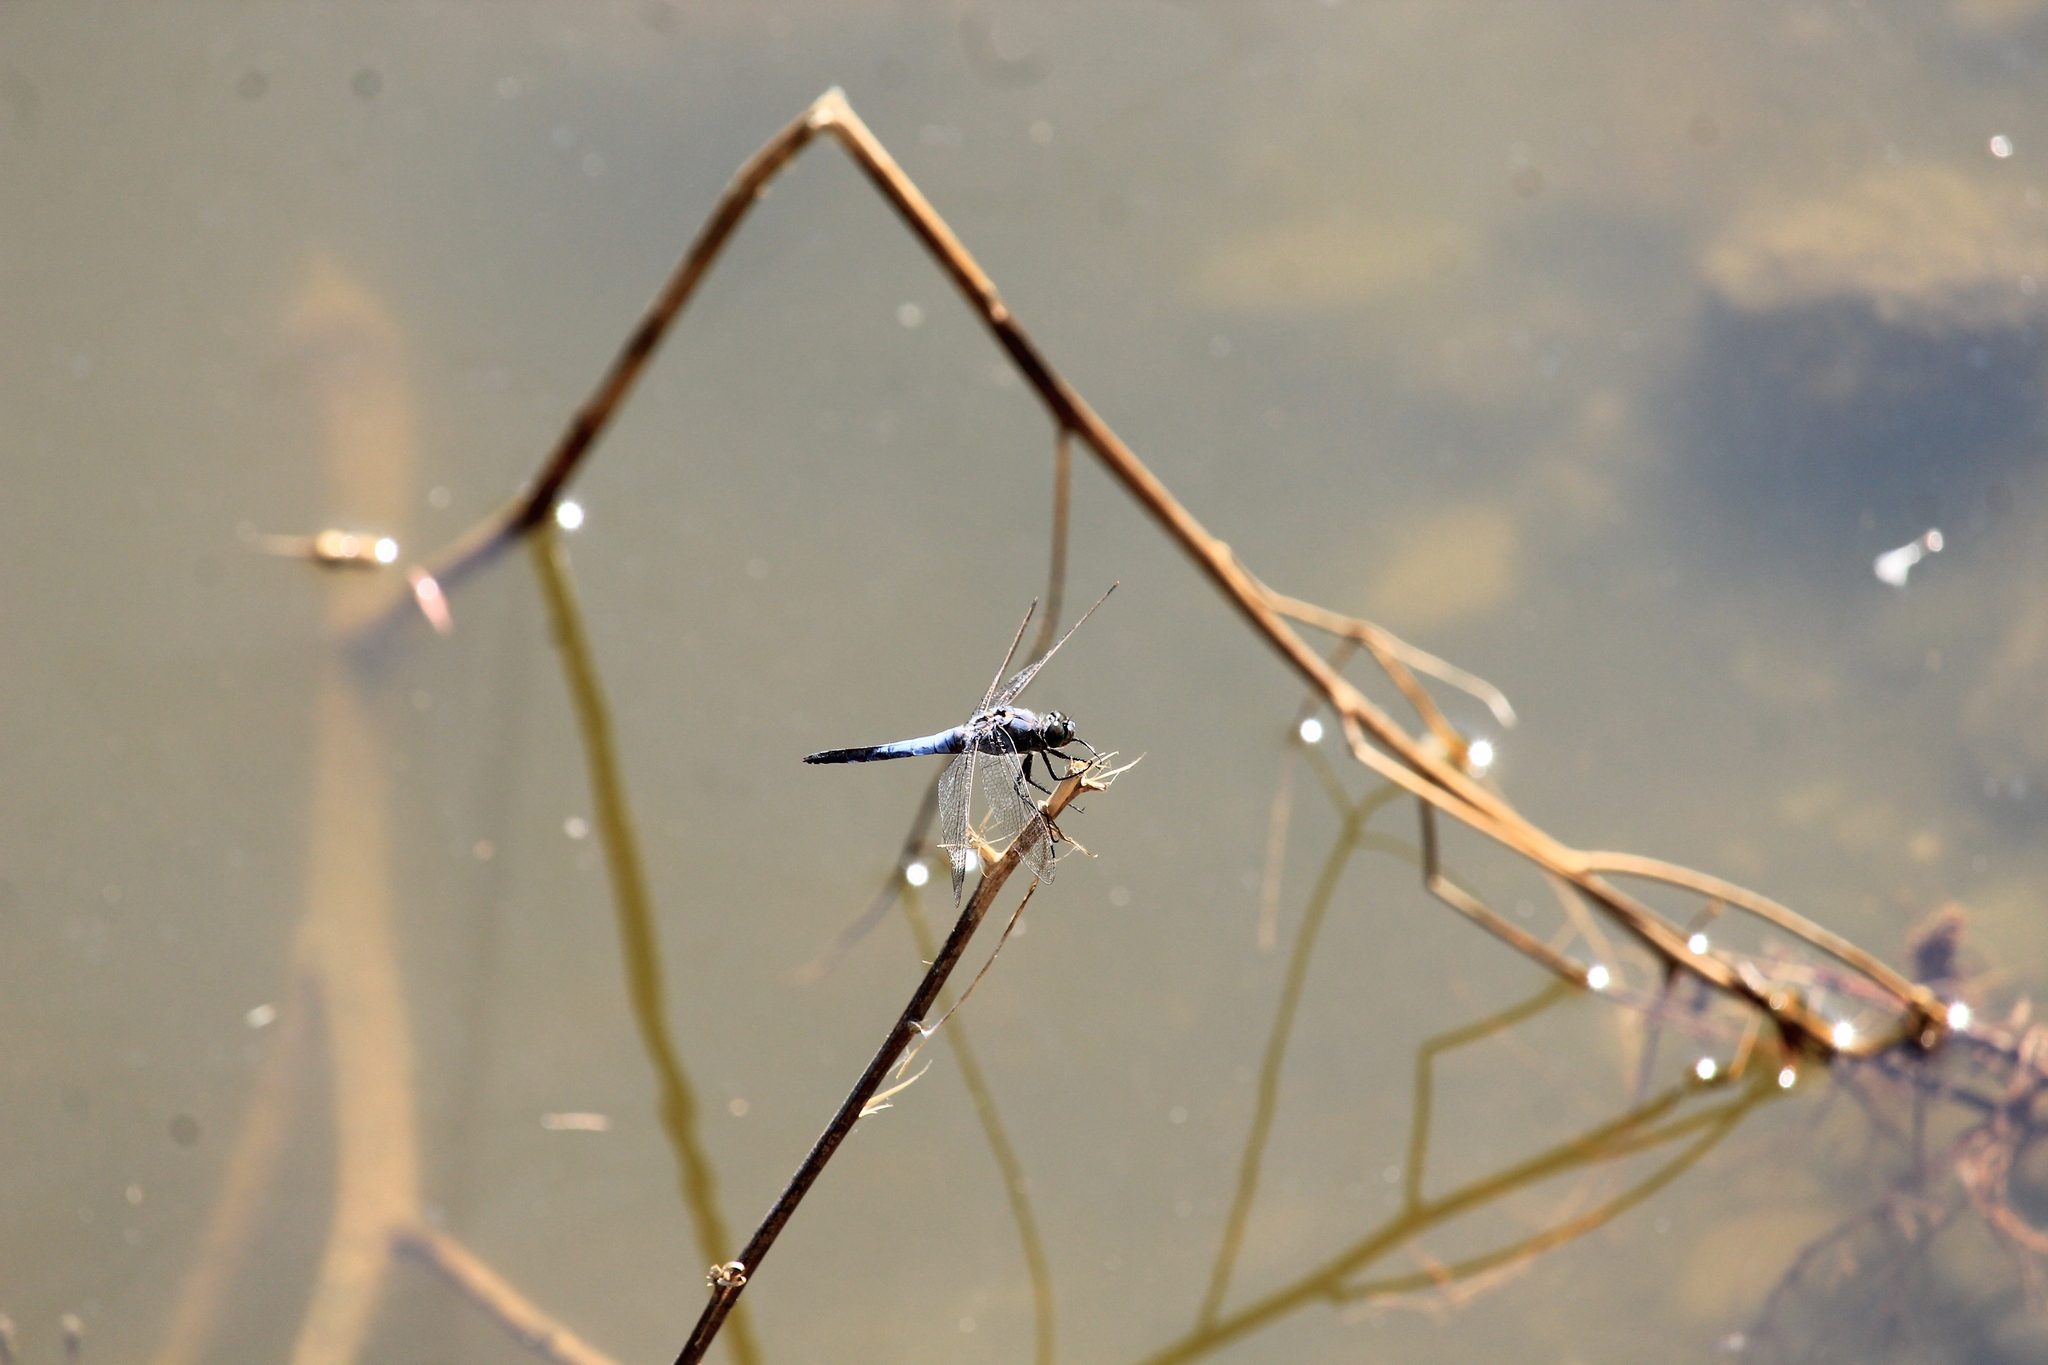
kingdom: Animalia
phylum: Arthropoda
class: Insecta
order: Odonata
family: Libellulidae
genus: Orthetrum
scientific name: Orthetrum cancellatum
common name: Black-tailed skimmer
